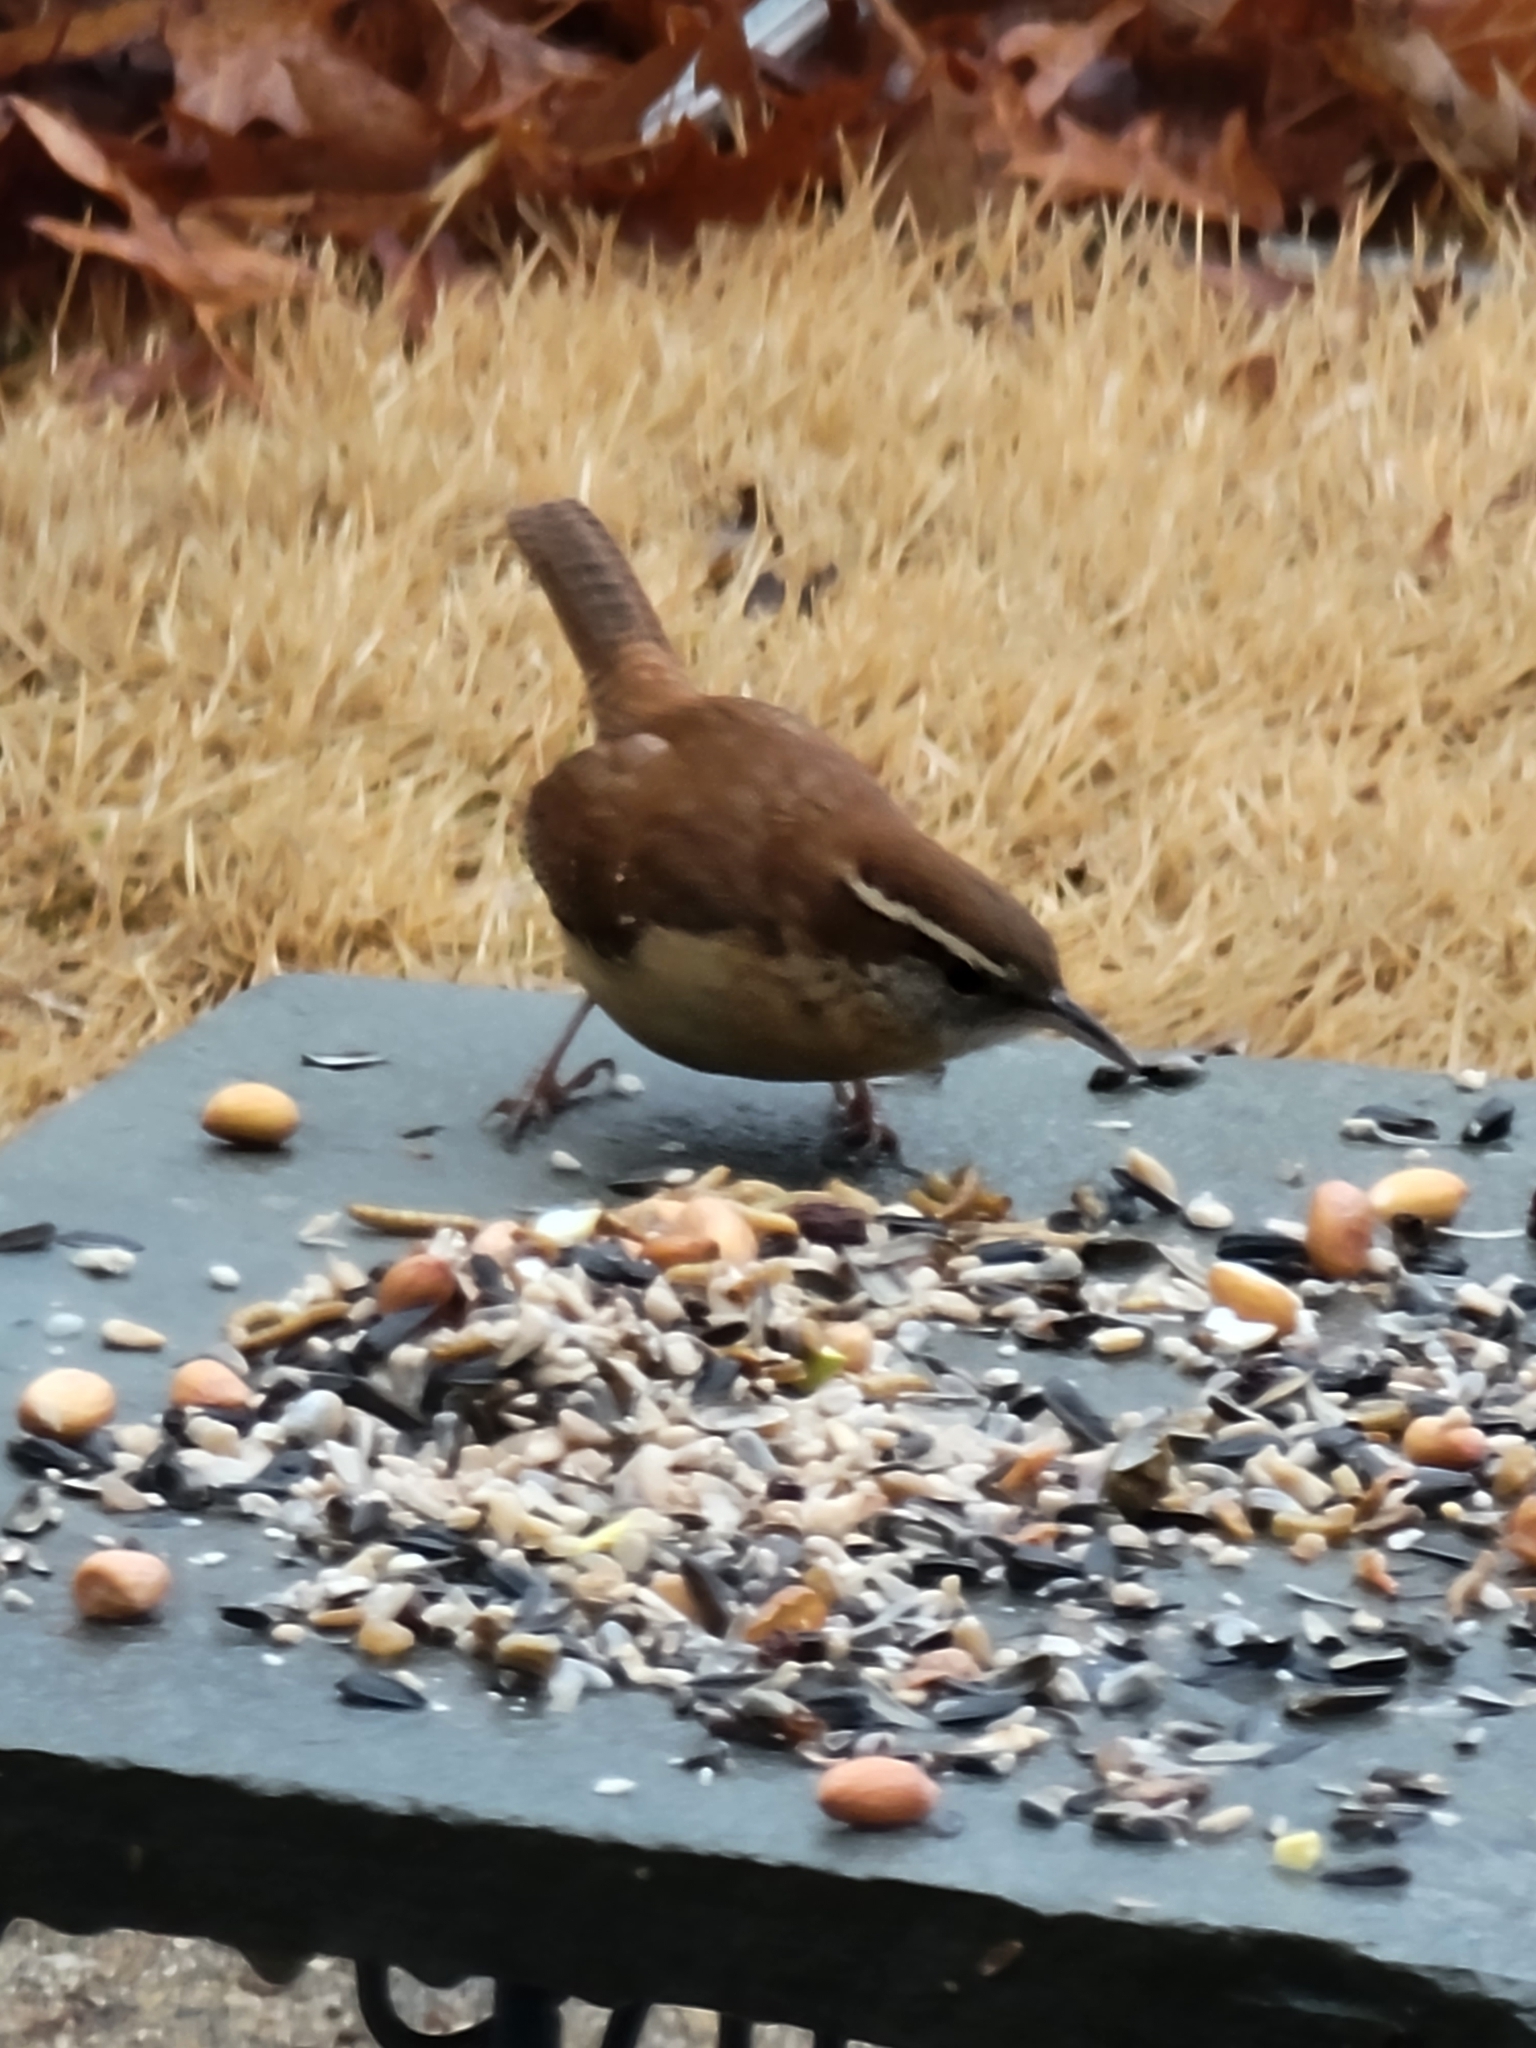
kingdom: Animalia
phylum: Chordata
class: Aves
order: Passeriformes
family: Troglodytidae
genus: Thryothorus
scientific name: Thryothorus ludovicianus
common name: Carolina wren
